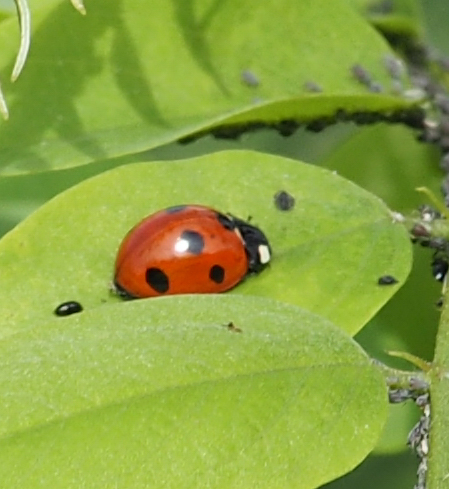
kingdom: Animalia
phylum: Arthropoda
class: Insecta
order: Coleoptera
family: Coccinellidae
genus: Coccinella
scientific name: Coccinella septempunctata
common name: Sevenspotted lady beetle
